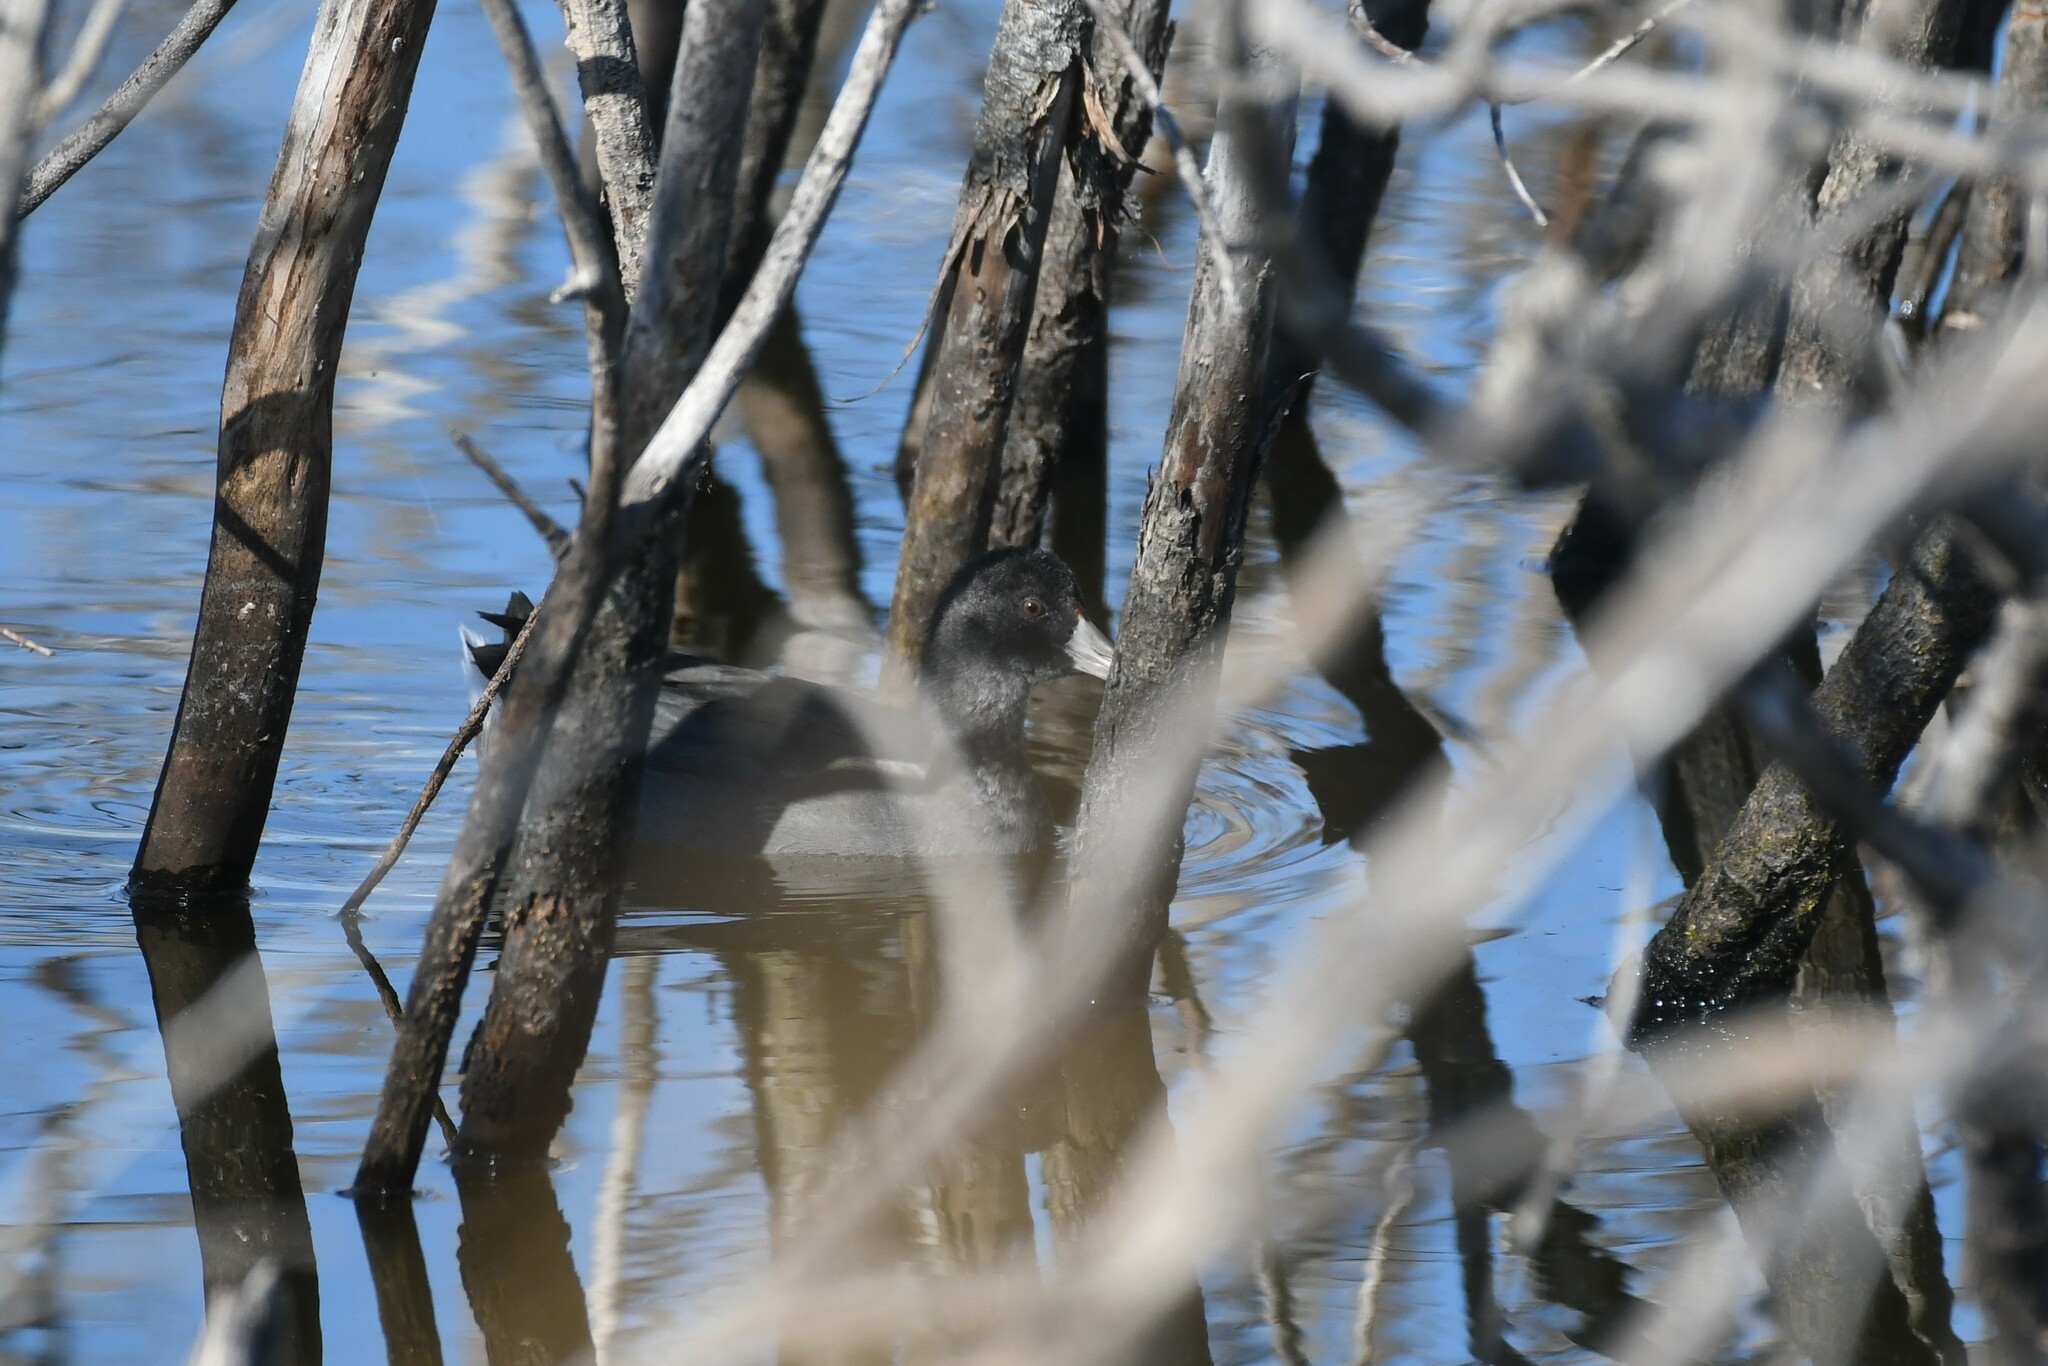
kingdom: Animalia
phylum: Chordata
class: Aves
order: Gruiformes
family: Rallidae
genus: Fulica
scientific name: Fulica americana
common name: American coot
